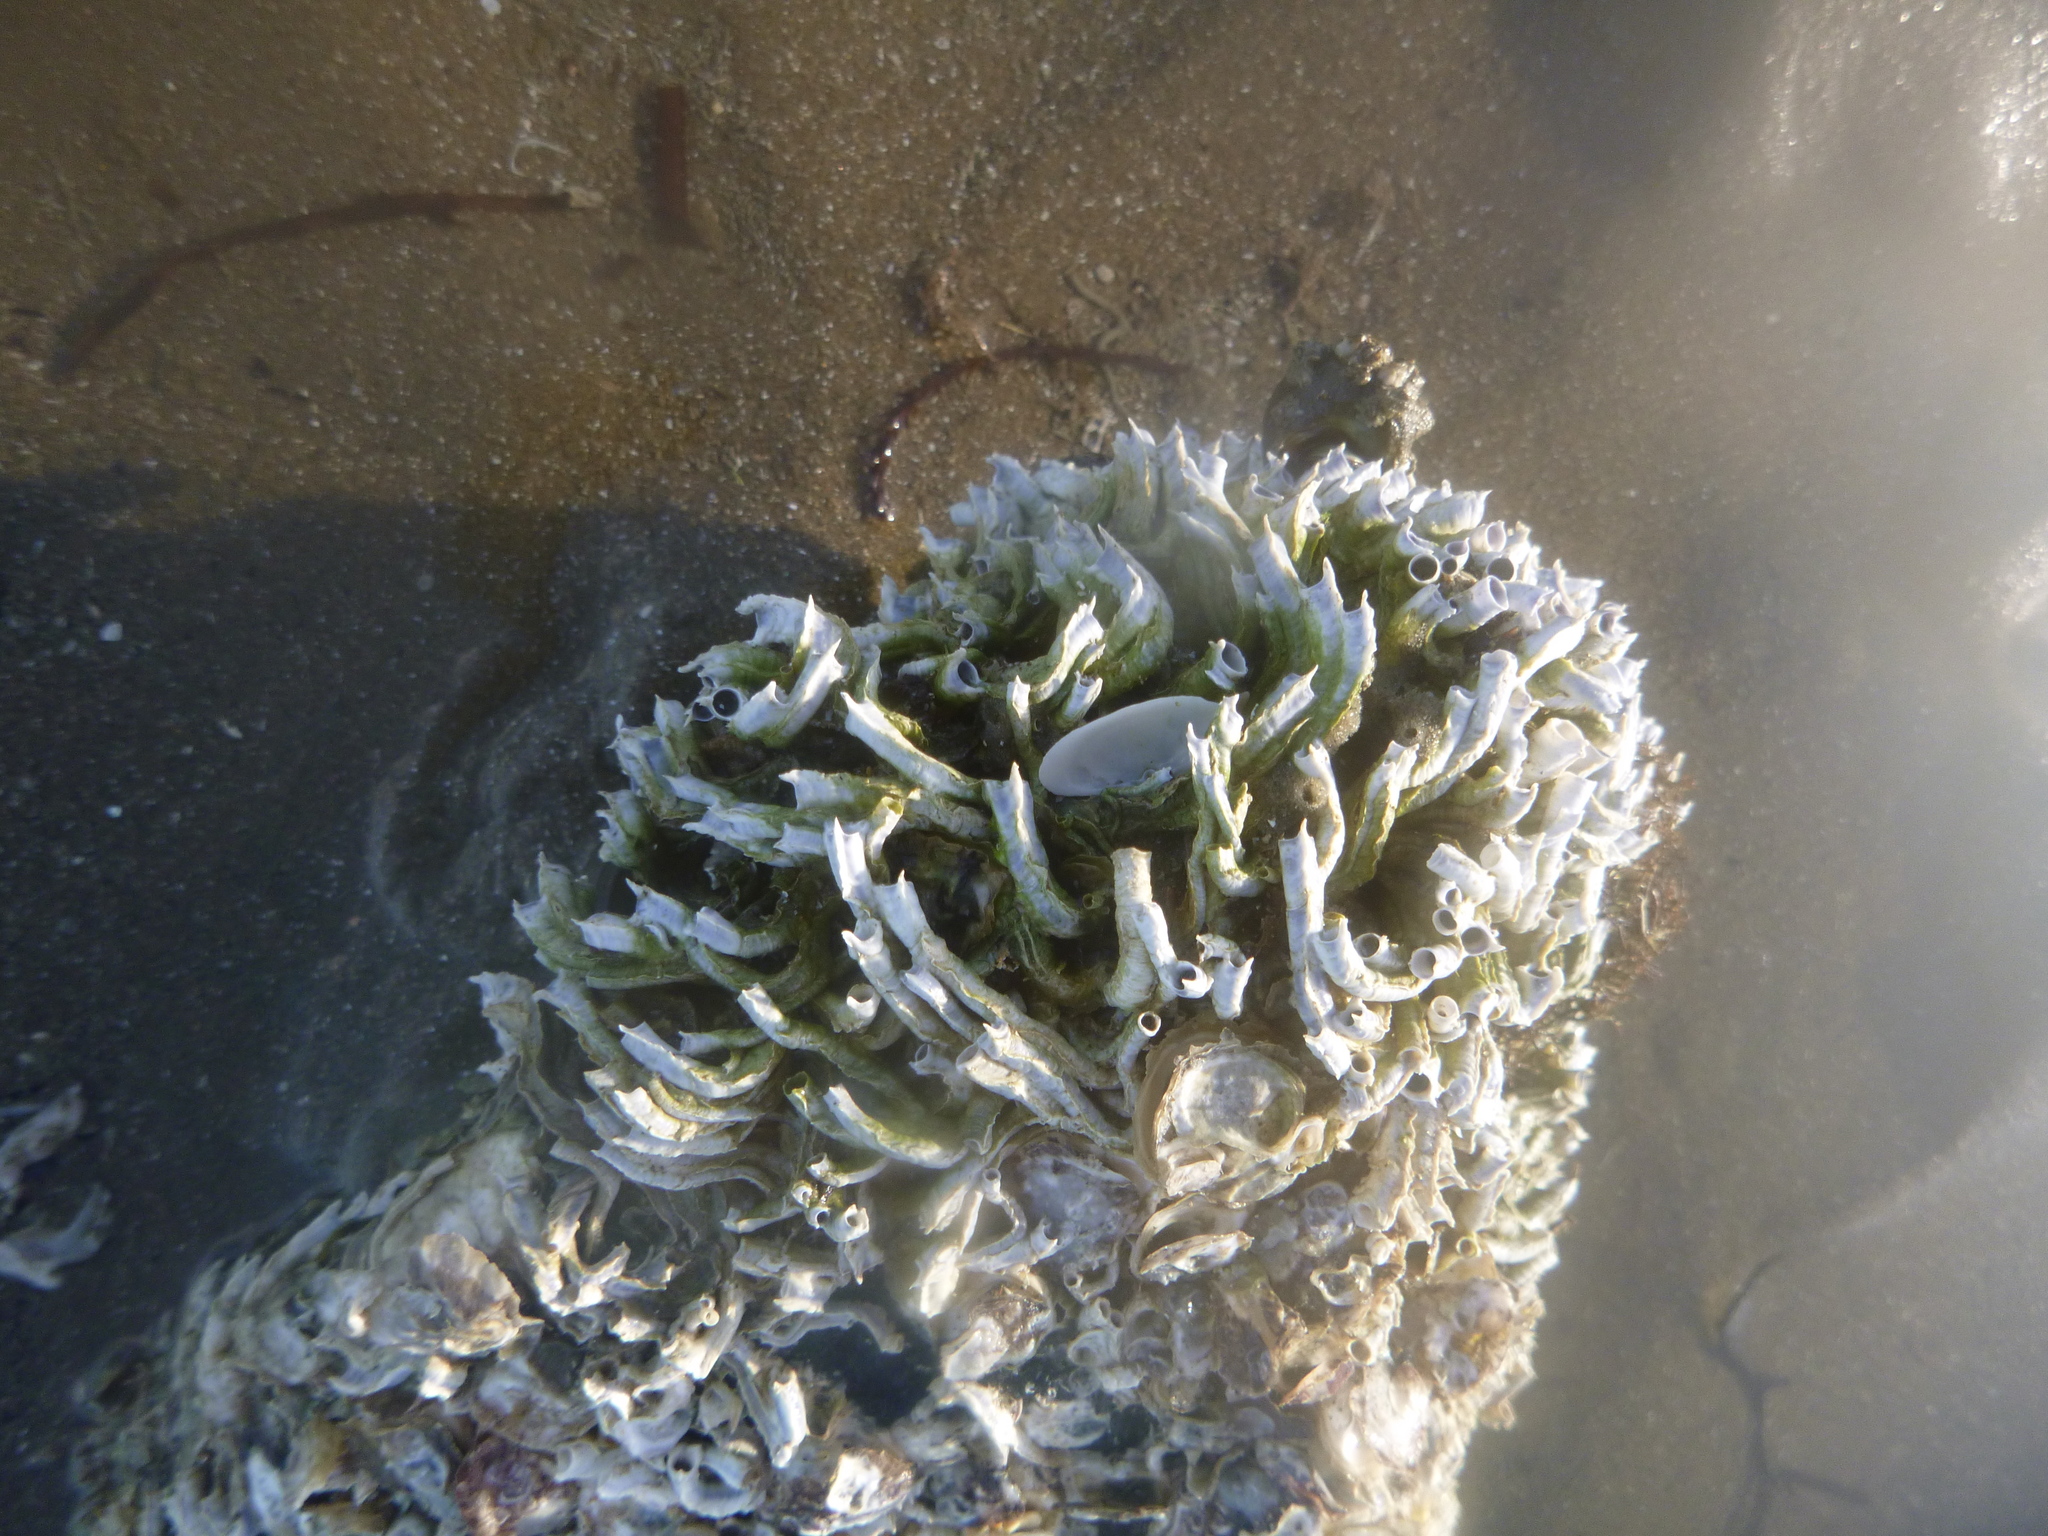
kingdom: Animalia
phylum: Annelida
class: Polychaeta
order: Sabellida
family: Serpulidae
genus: Spirobranchus
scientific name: Spirobranchus cariniferus
